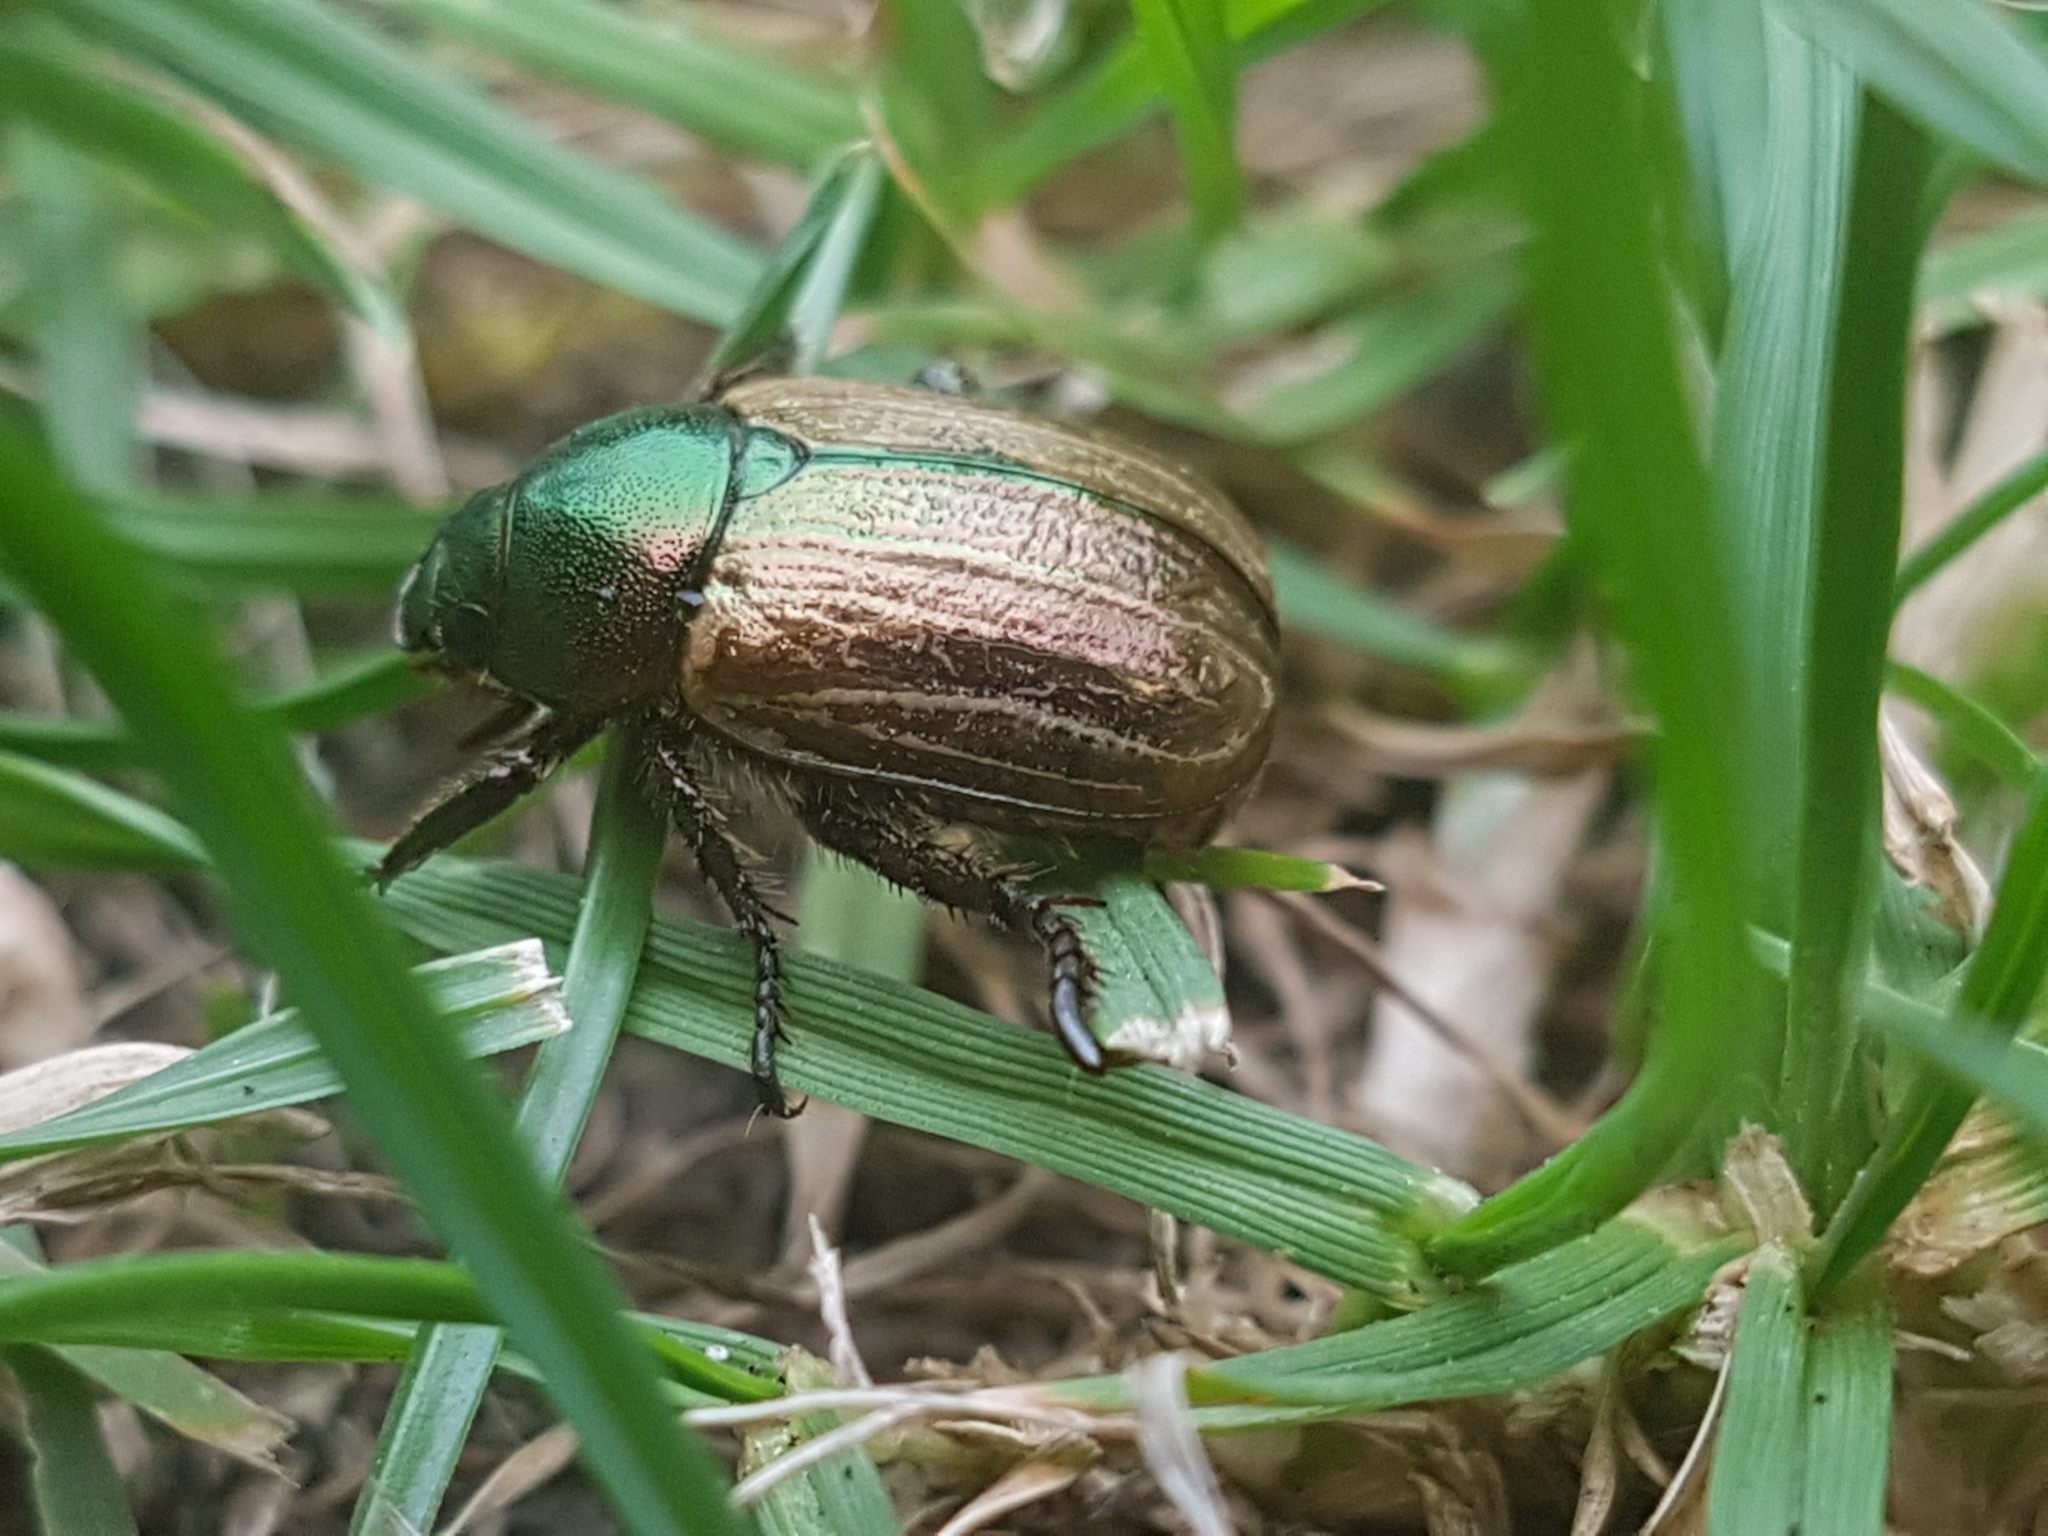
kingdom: Animalia
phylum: Arthropoda
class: Insecta
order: Coleoptera
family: Scarabaeidae
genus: Anomala
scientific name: Anomala dubia
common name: Dune chafer
